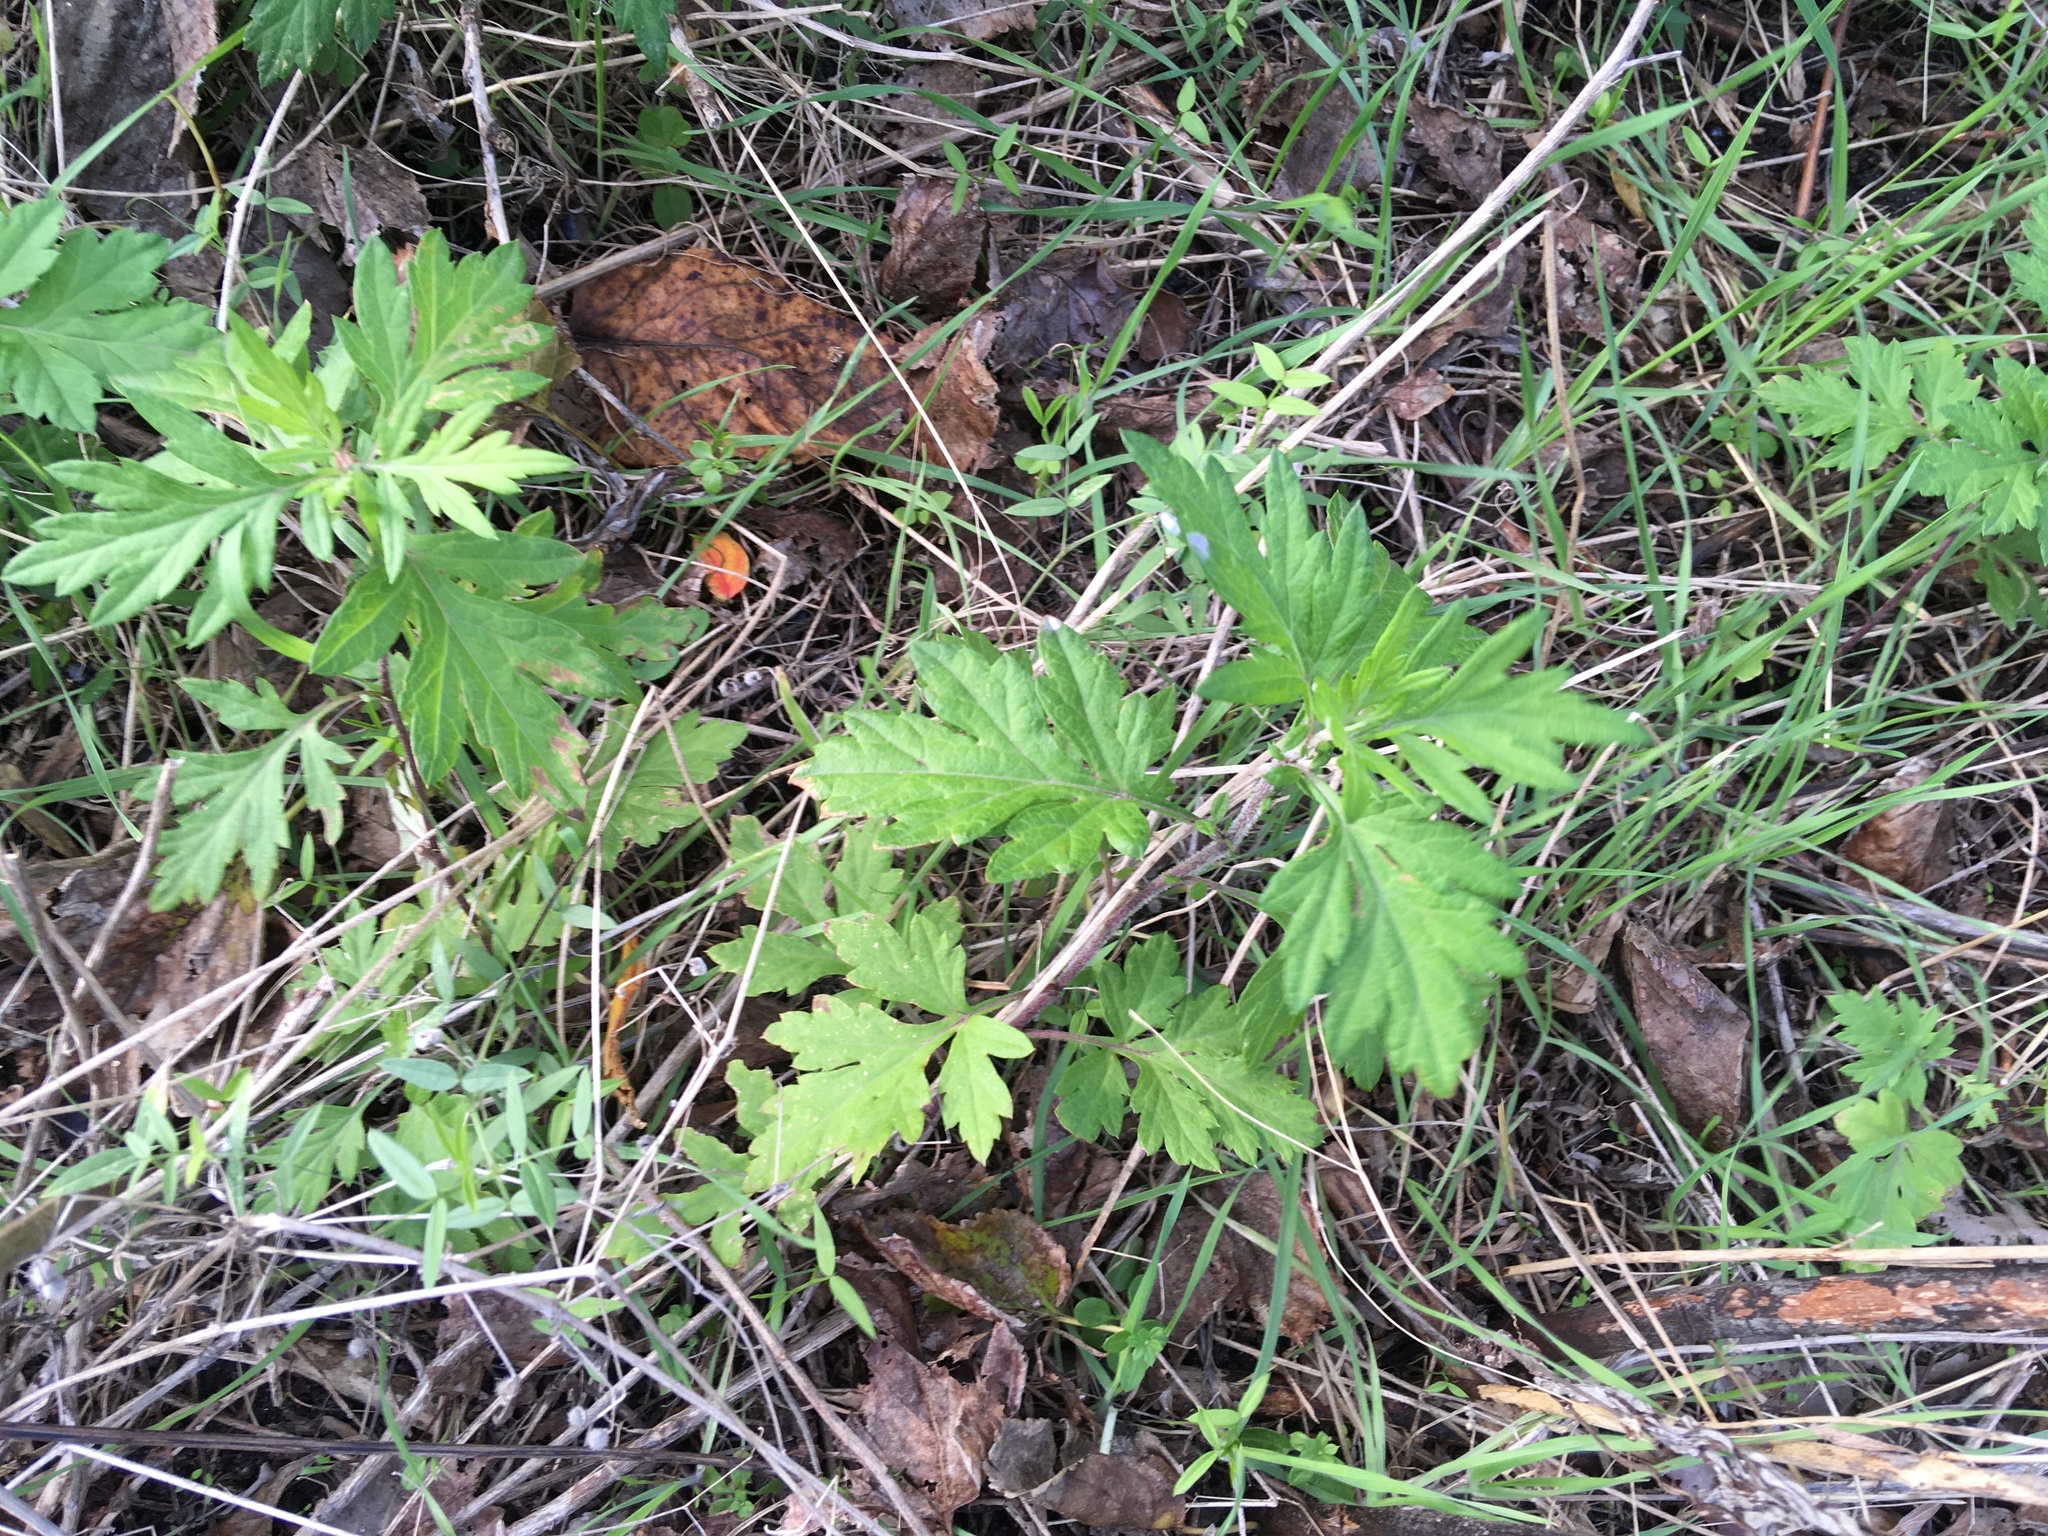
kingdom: Plantae
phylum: Tracheophyta
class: Magnoliopsida
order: Asterales
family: Asteraceae
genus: Artemisia
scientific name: Artemisia vulgaris
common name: Mugwort
